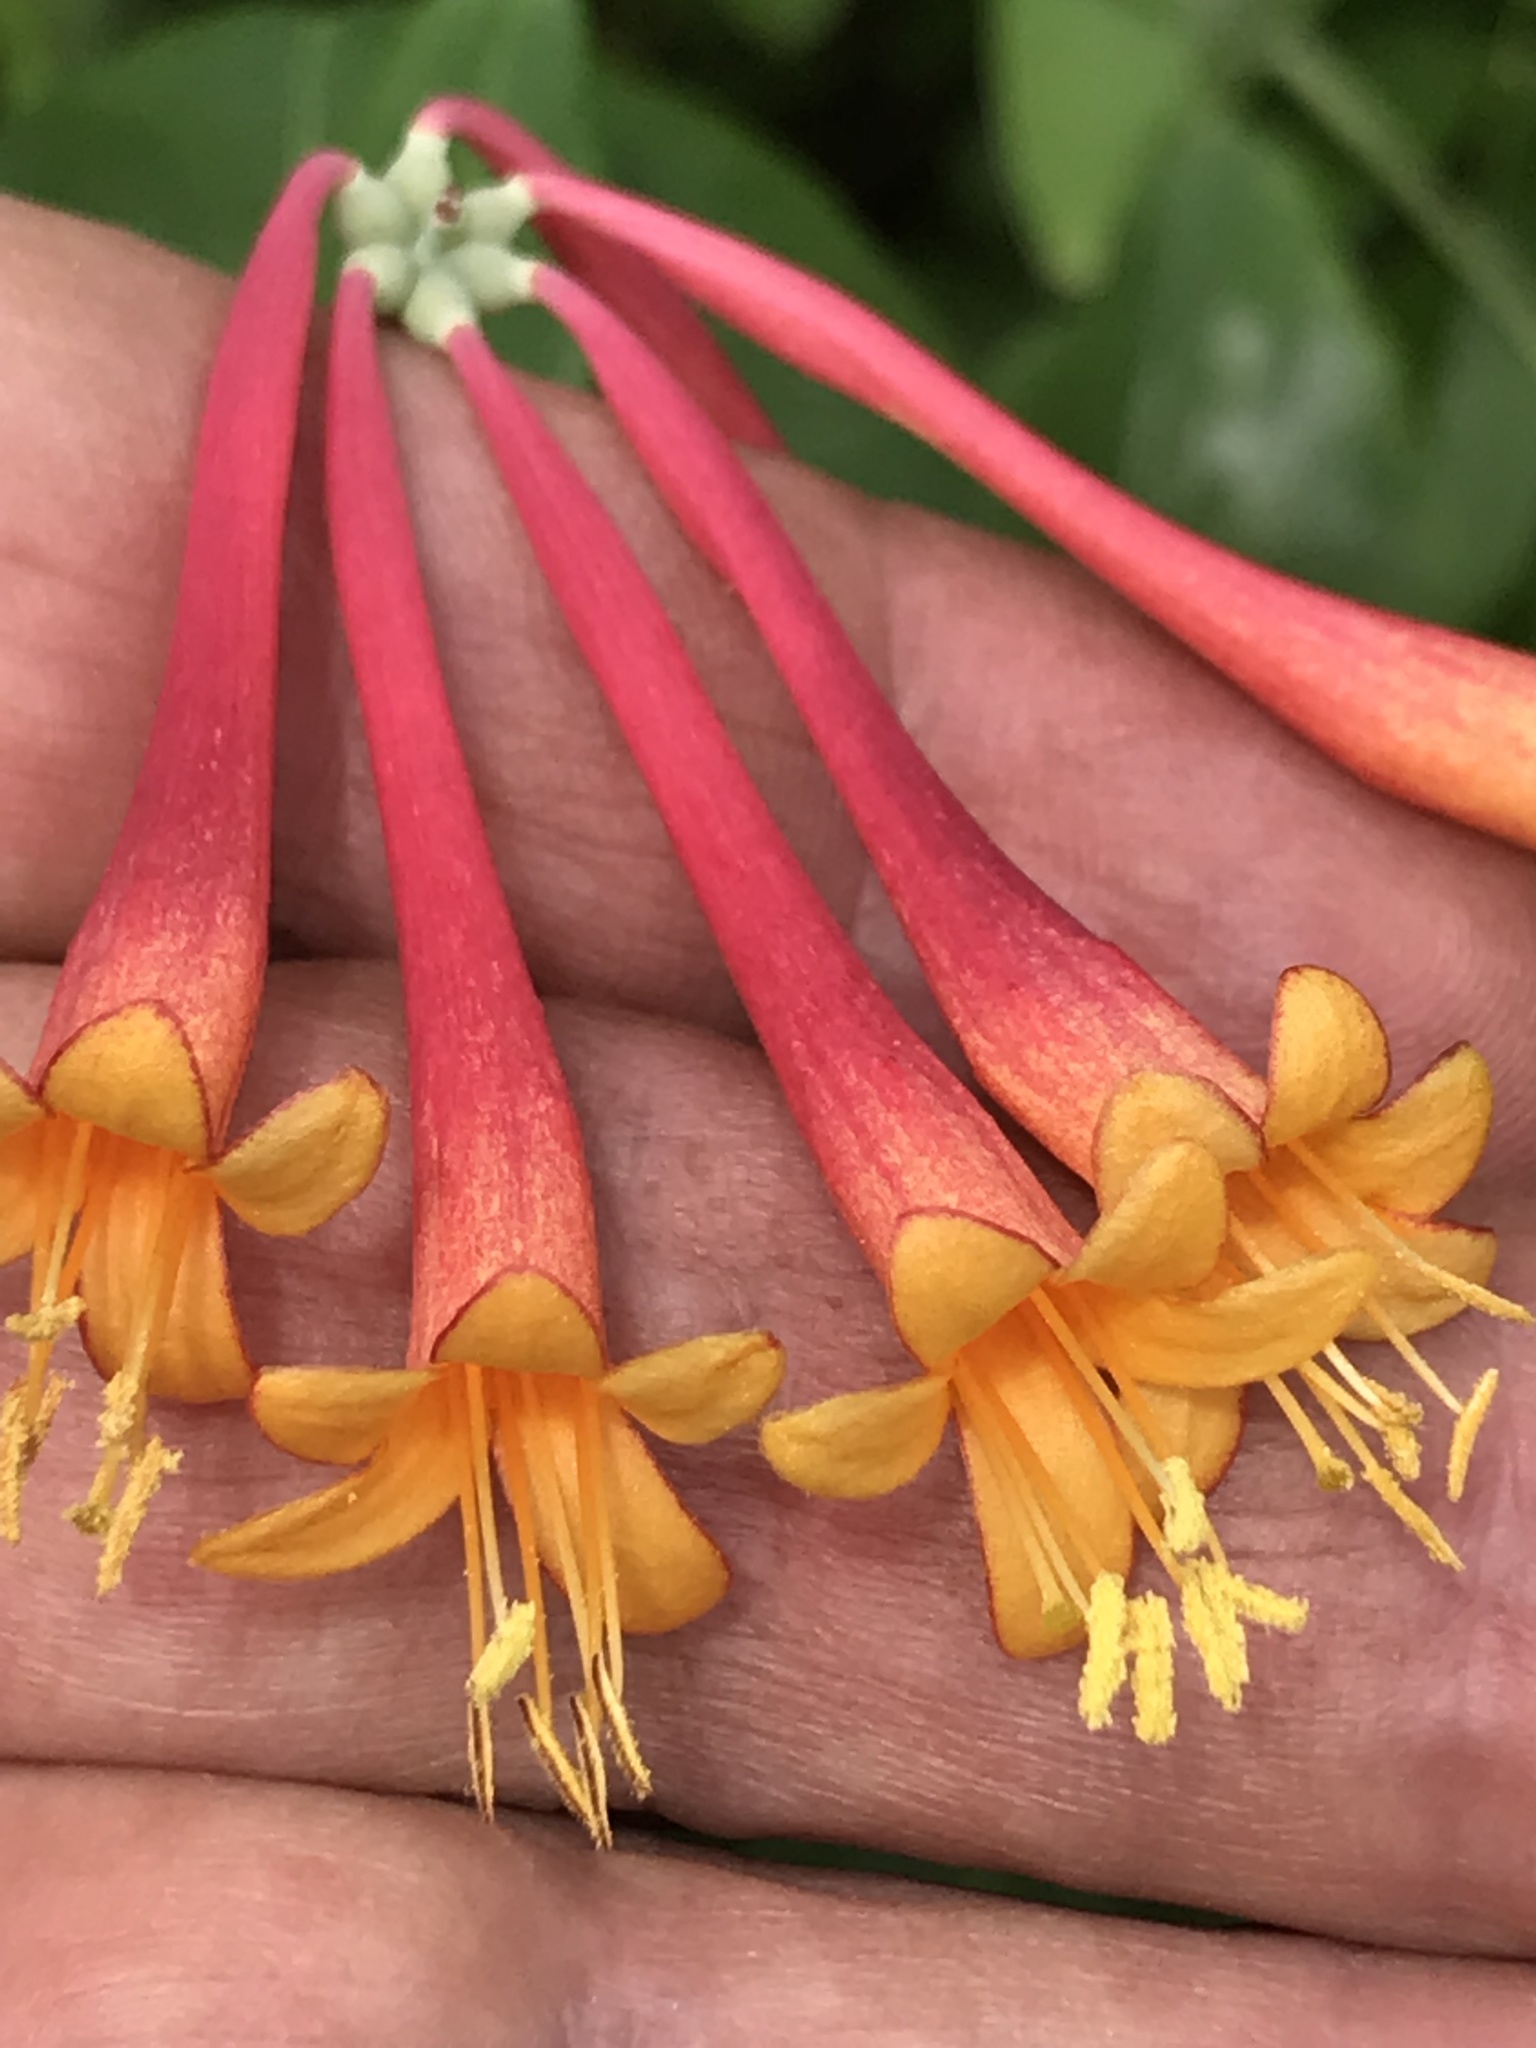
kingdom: Plantae
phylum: Tracheophyta
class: Magnoliopsida
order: Dipsacales
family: Caprifoliaceae
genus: Lonicera
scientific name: Lonicera sempervirens
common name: Coral honeysuckle
